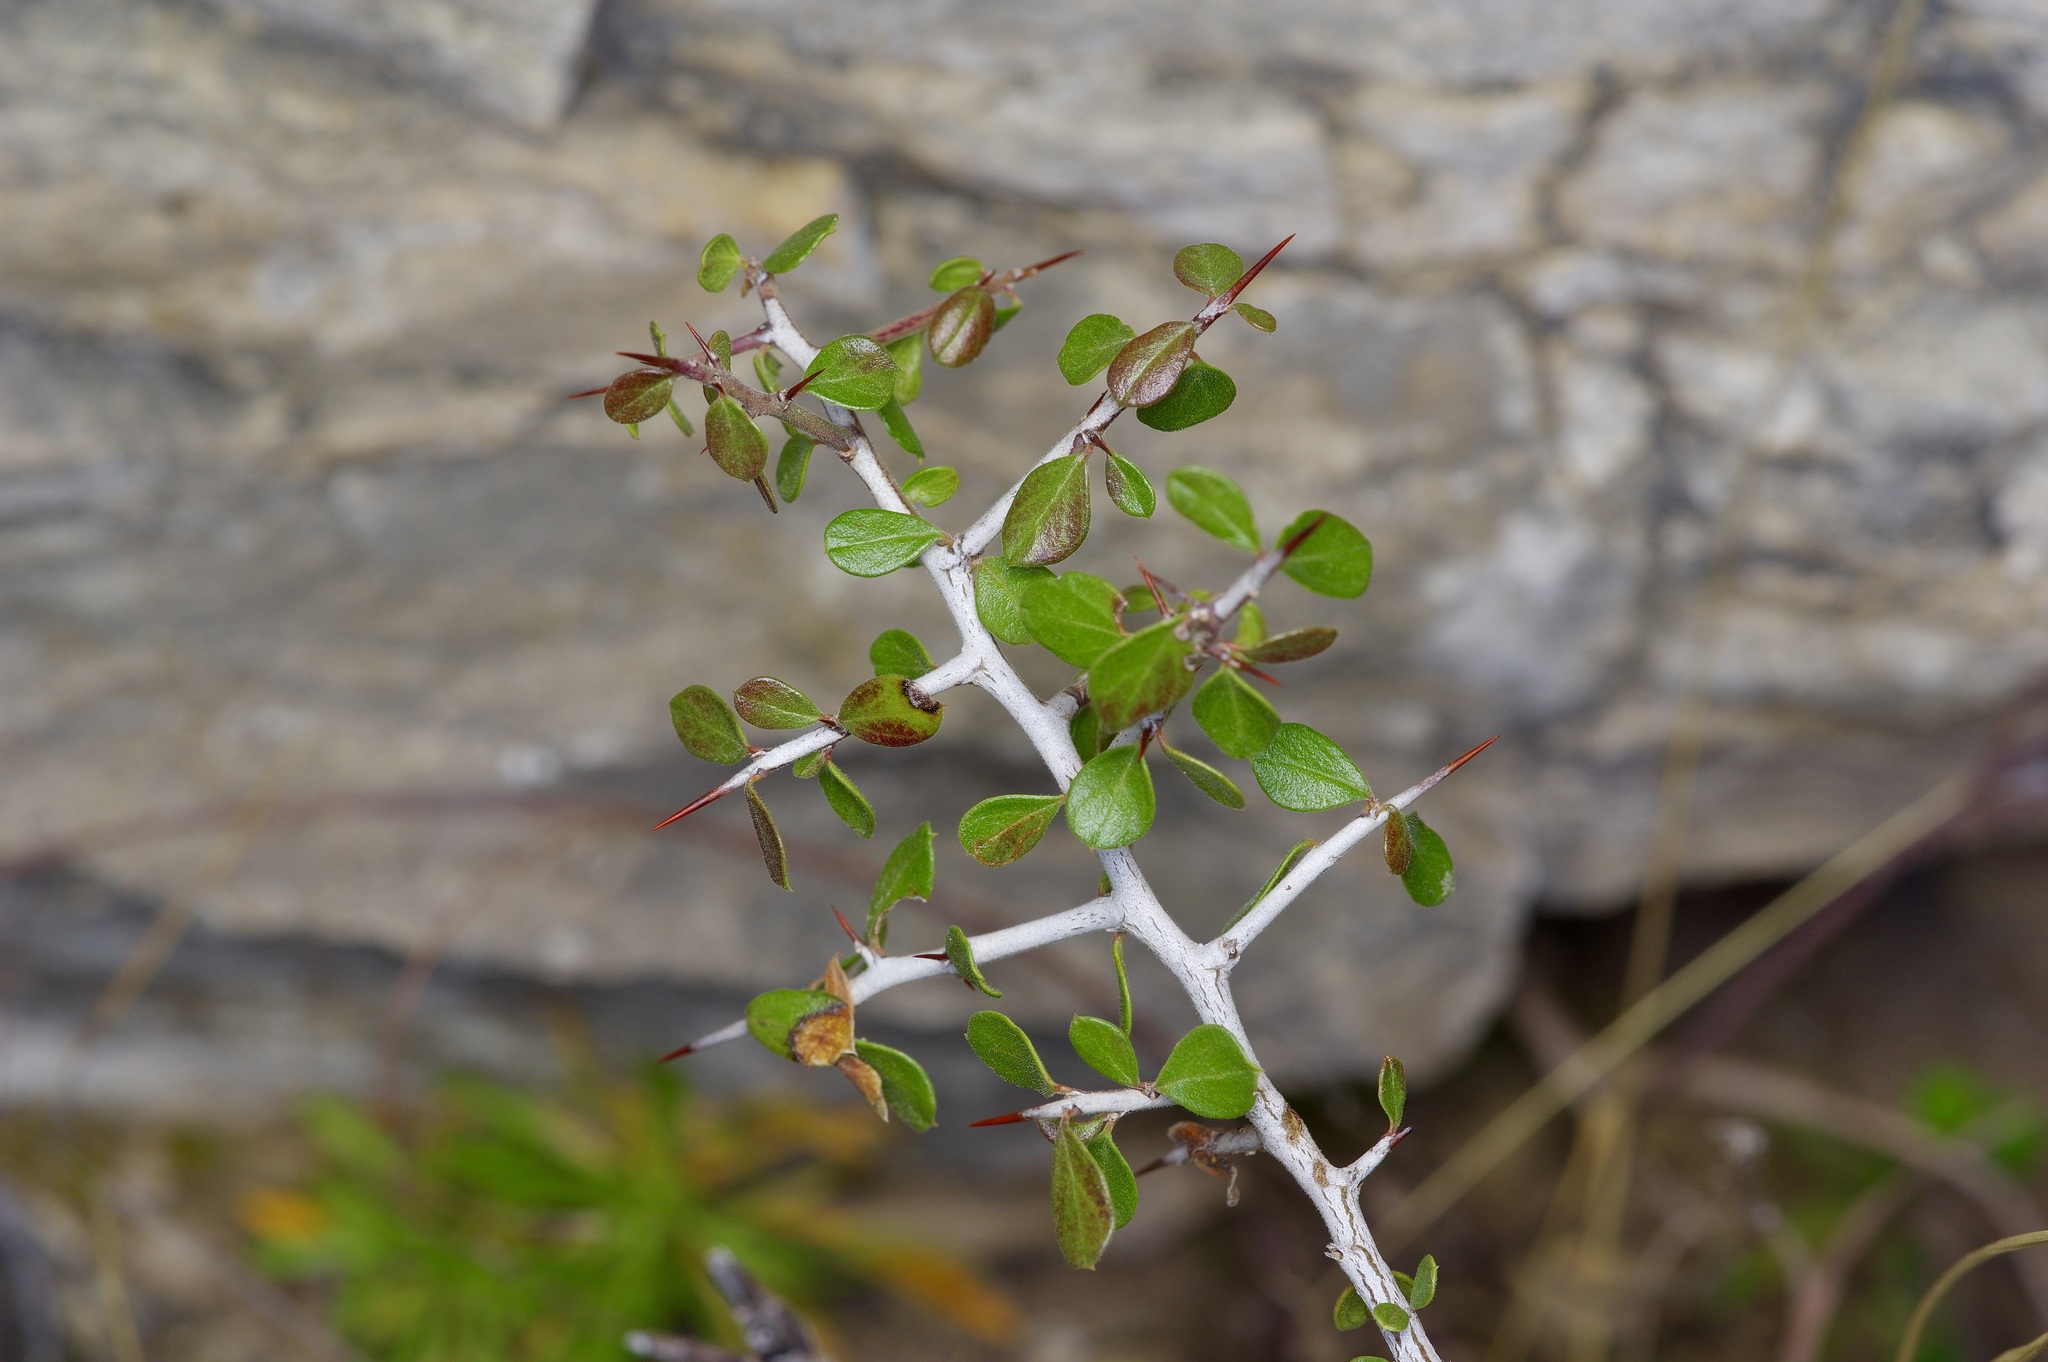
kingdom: Plantae
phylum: Tracheophyta
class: Magnoliopsida
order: Rosales
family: Rhamnaceae
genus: Condalia
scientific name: Condalia viridis
